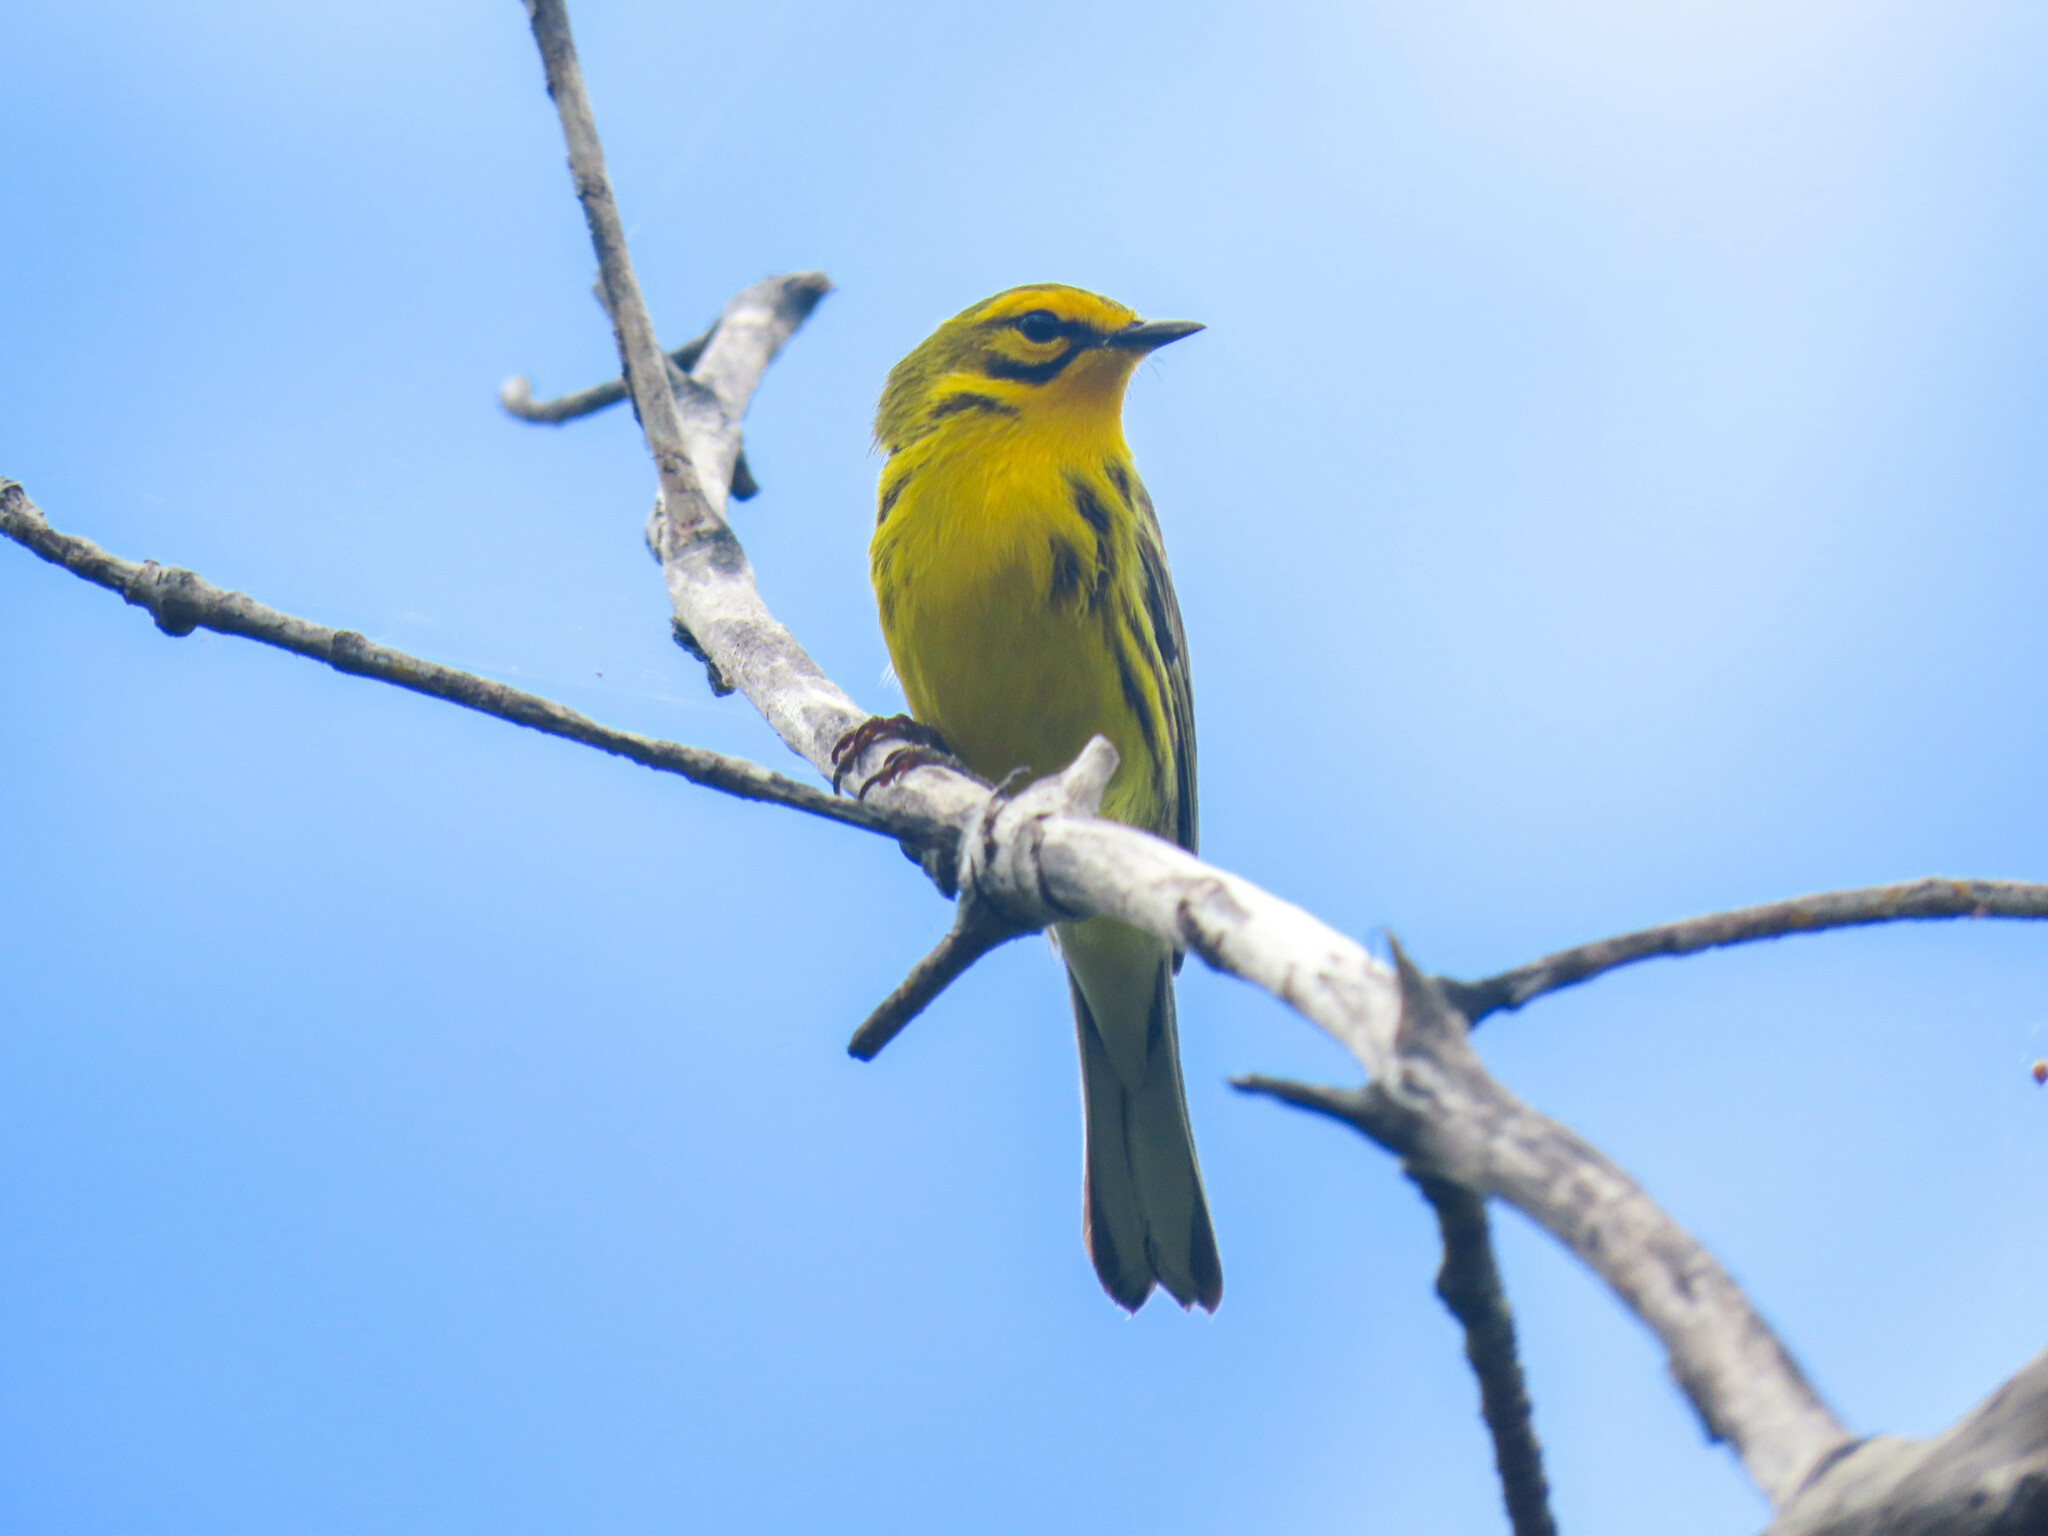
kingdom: Animalia
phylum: Chordata
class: Aves
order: Passeriformes
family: Parulidae
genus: Setophaga
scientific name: Setophaga discolor
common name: Prairie warbler
